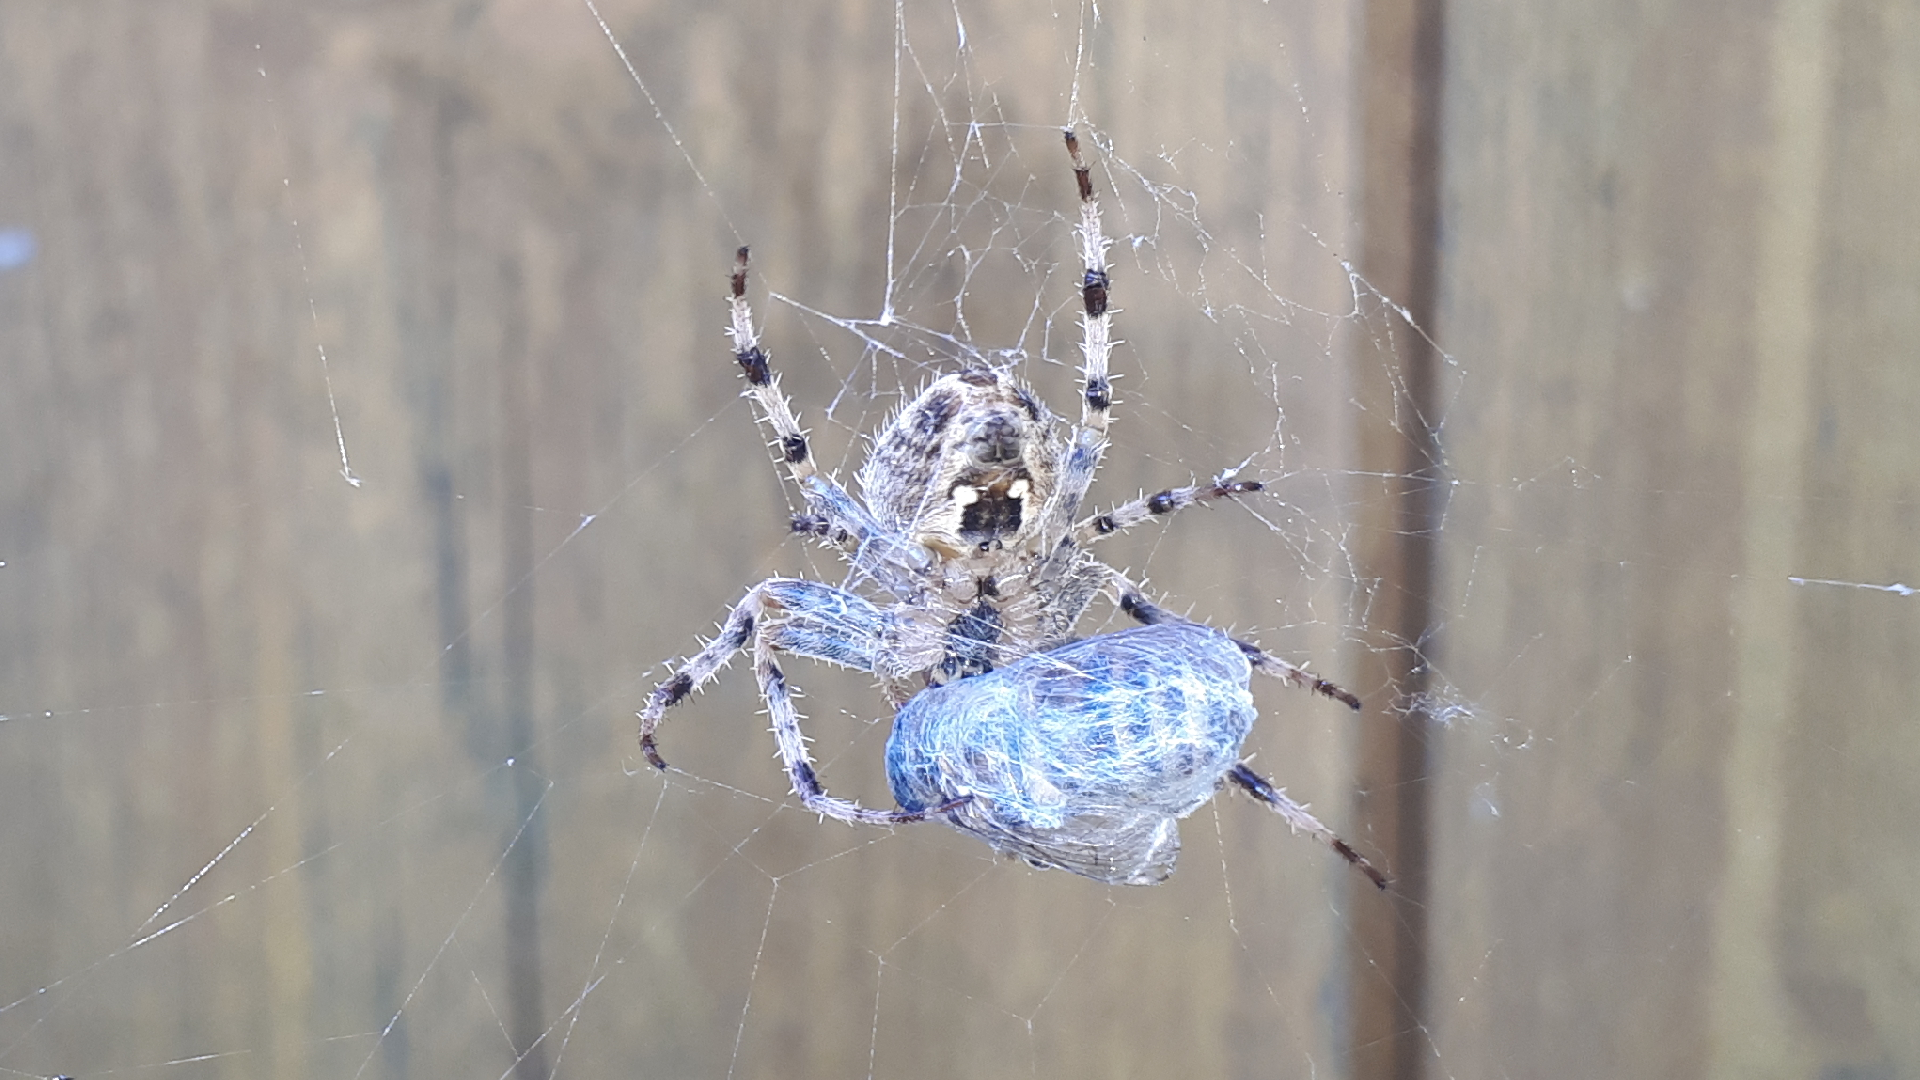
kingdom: Animalia
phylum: Arthropoda
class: Arachnida
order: Araneae
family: Araneidae
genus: Araneus
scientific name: Araneus diadematus
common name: Cross orbweaver
